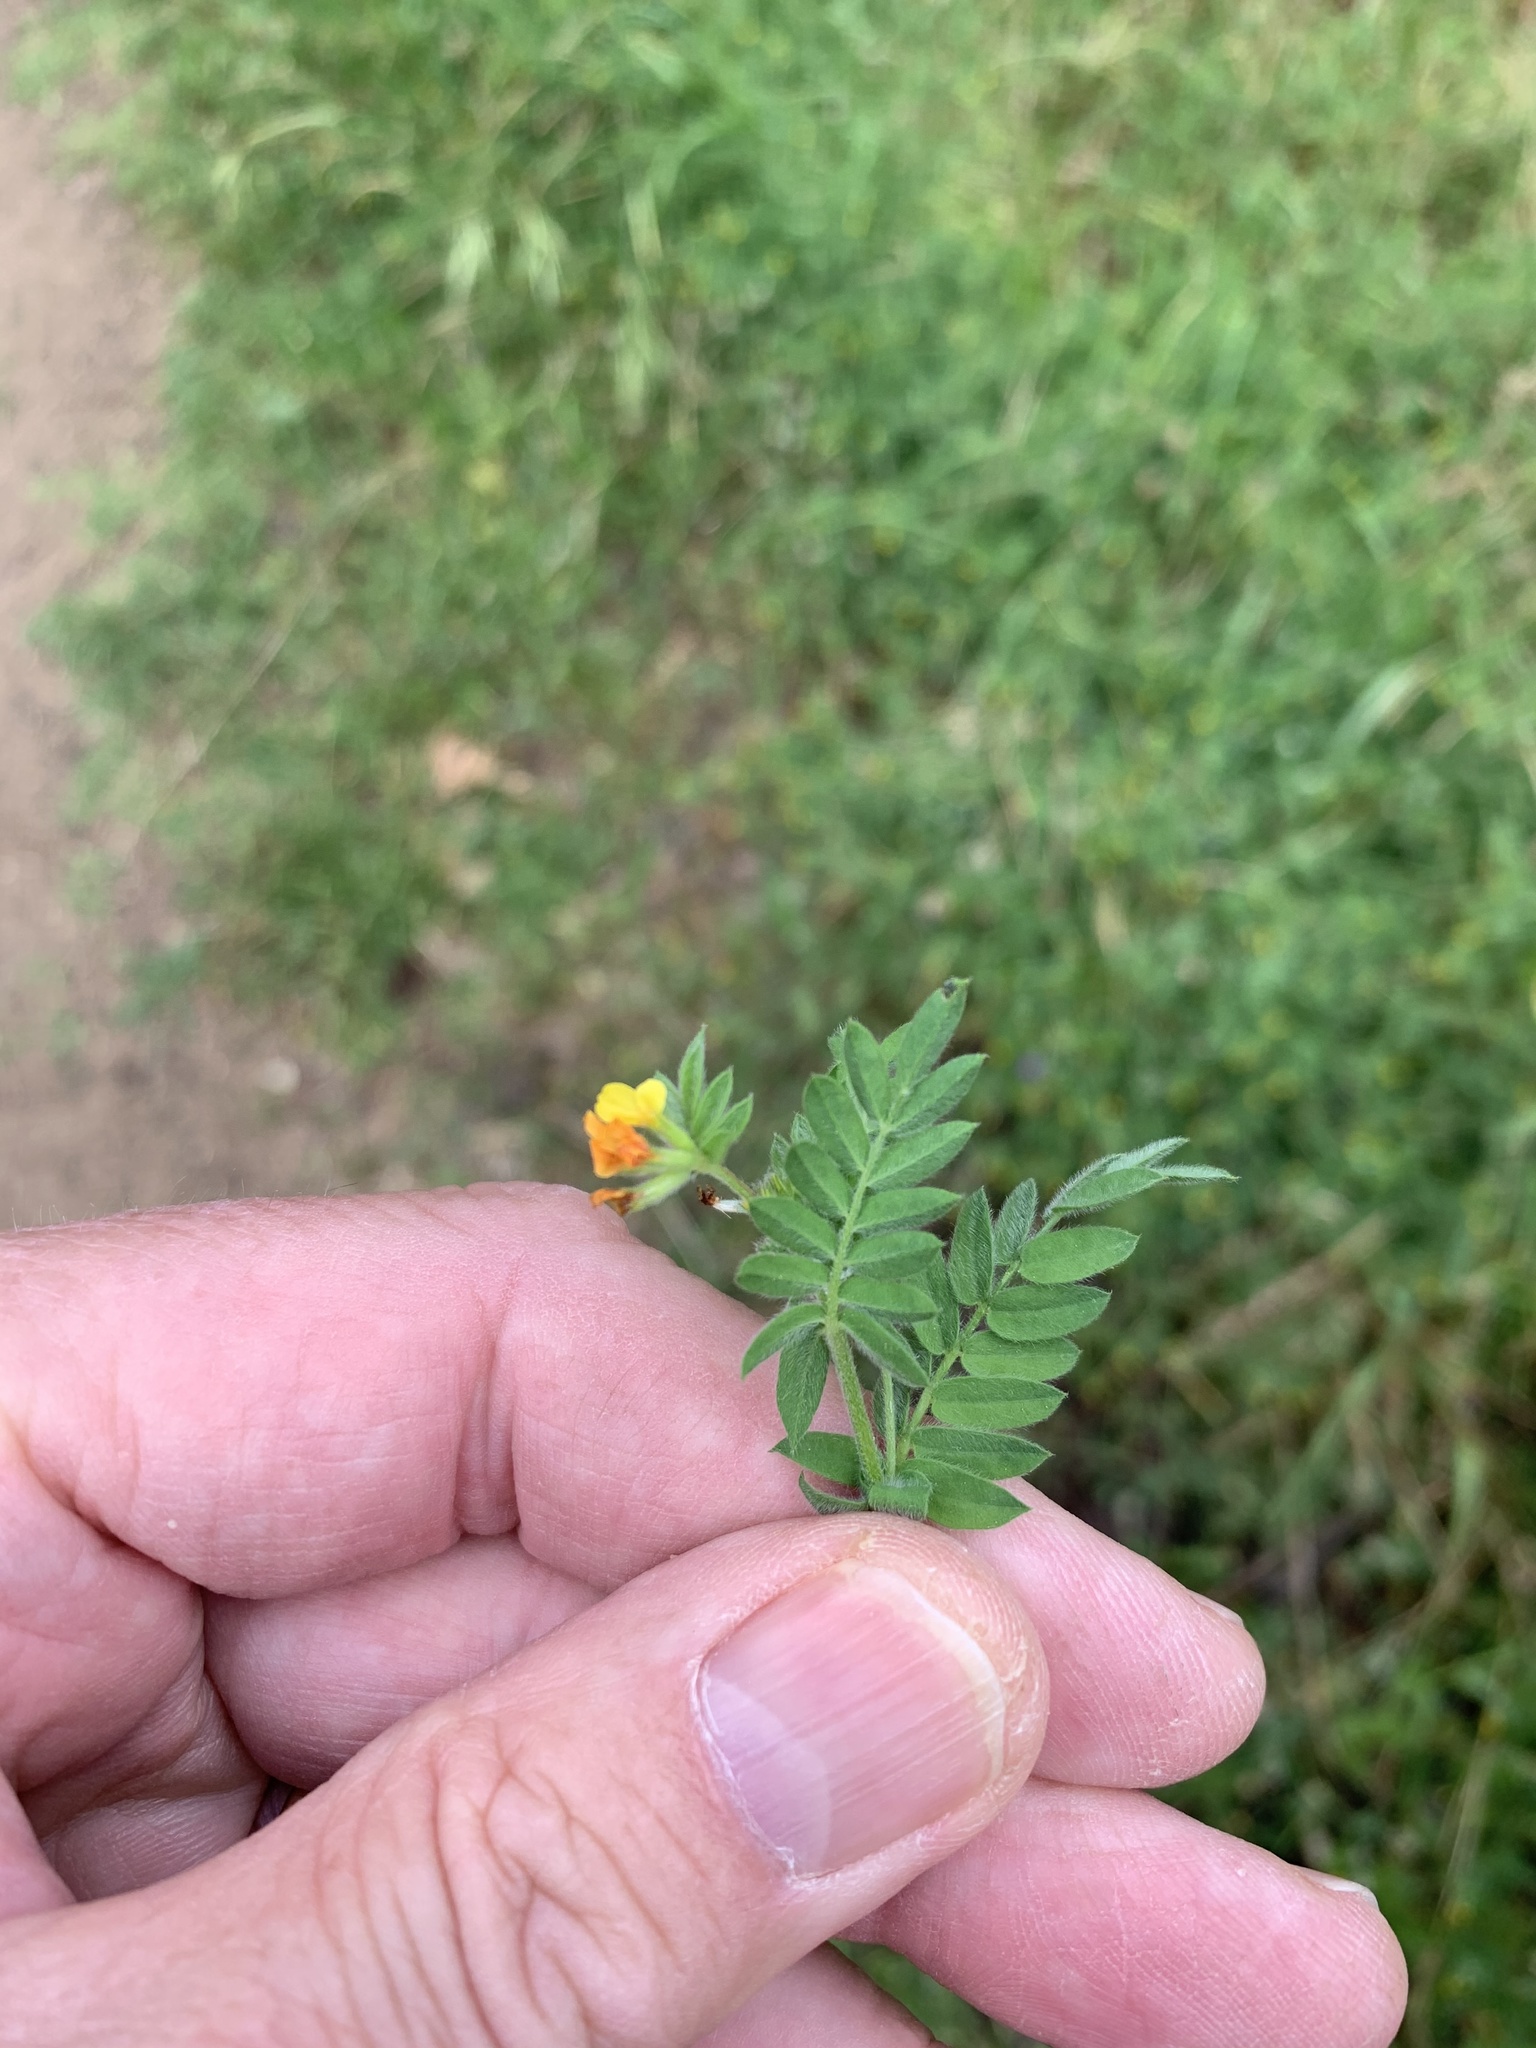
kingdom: Plantae
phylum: Tracheophyta
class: Magnoliopsida
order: Fabales
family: Fabaceae
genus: Ornithopus
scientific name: Ornithopus compressus
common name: Yellow serradella
